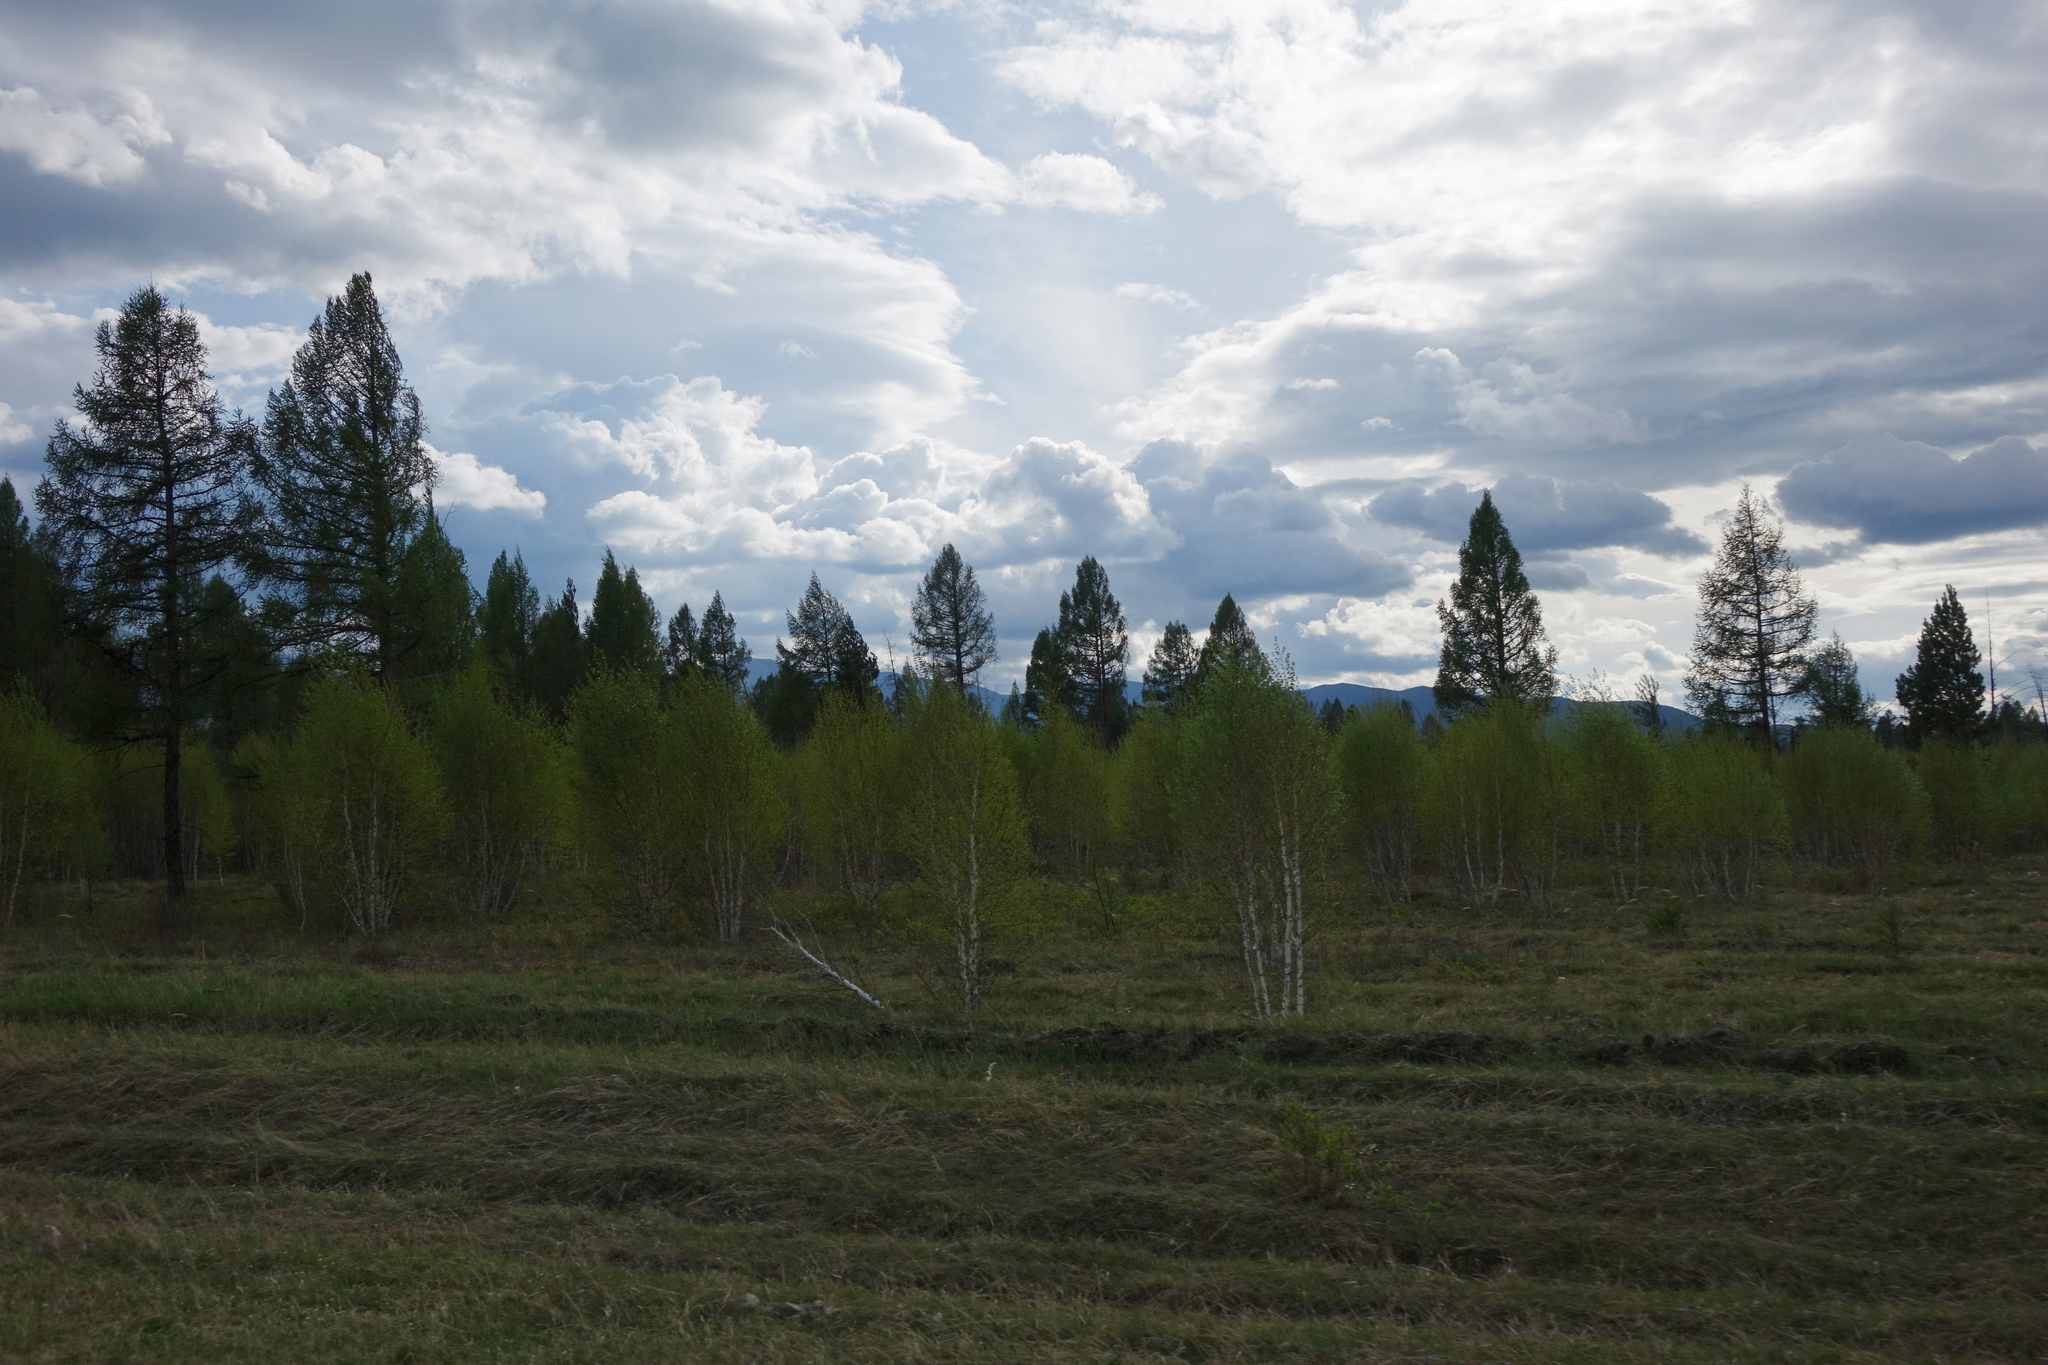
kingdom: Plantae
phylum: Tracheophyta
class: Pinopsida
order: Pinales
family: Pinaceae
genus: Larix
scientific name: Larix sibirica
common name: Siberian larch
